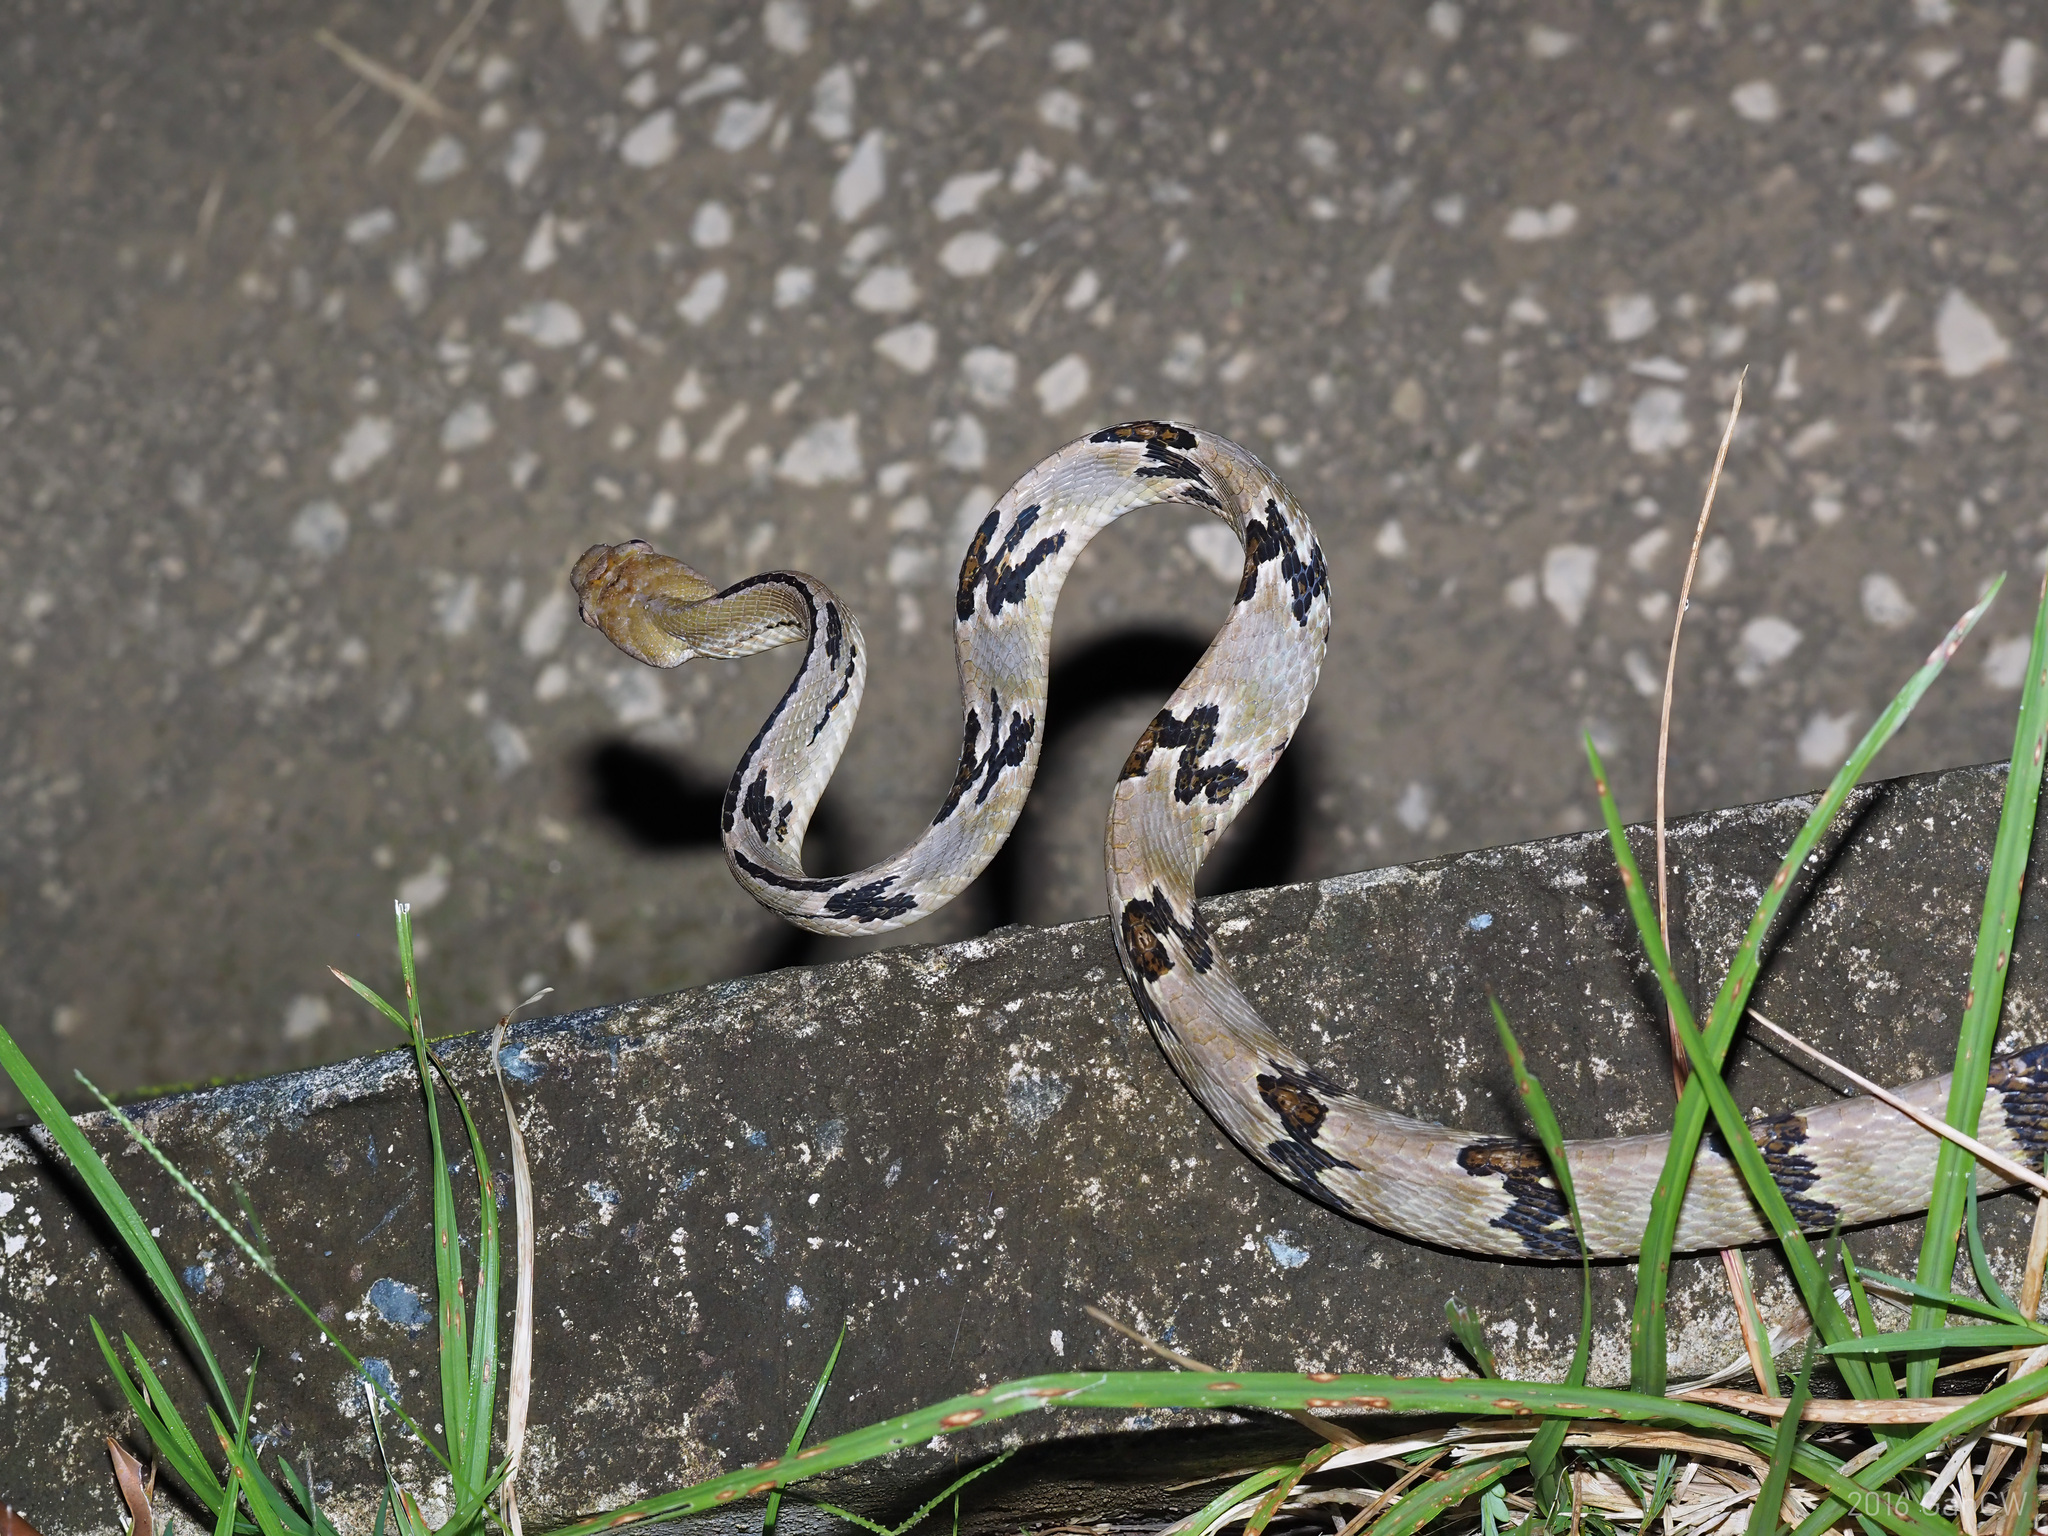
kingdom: Animalia
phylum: Chordata
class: Squamata
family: Colubridae
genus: Boiga
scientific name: Boiga cynodon
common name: Dog-toothed cat snake
